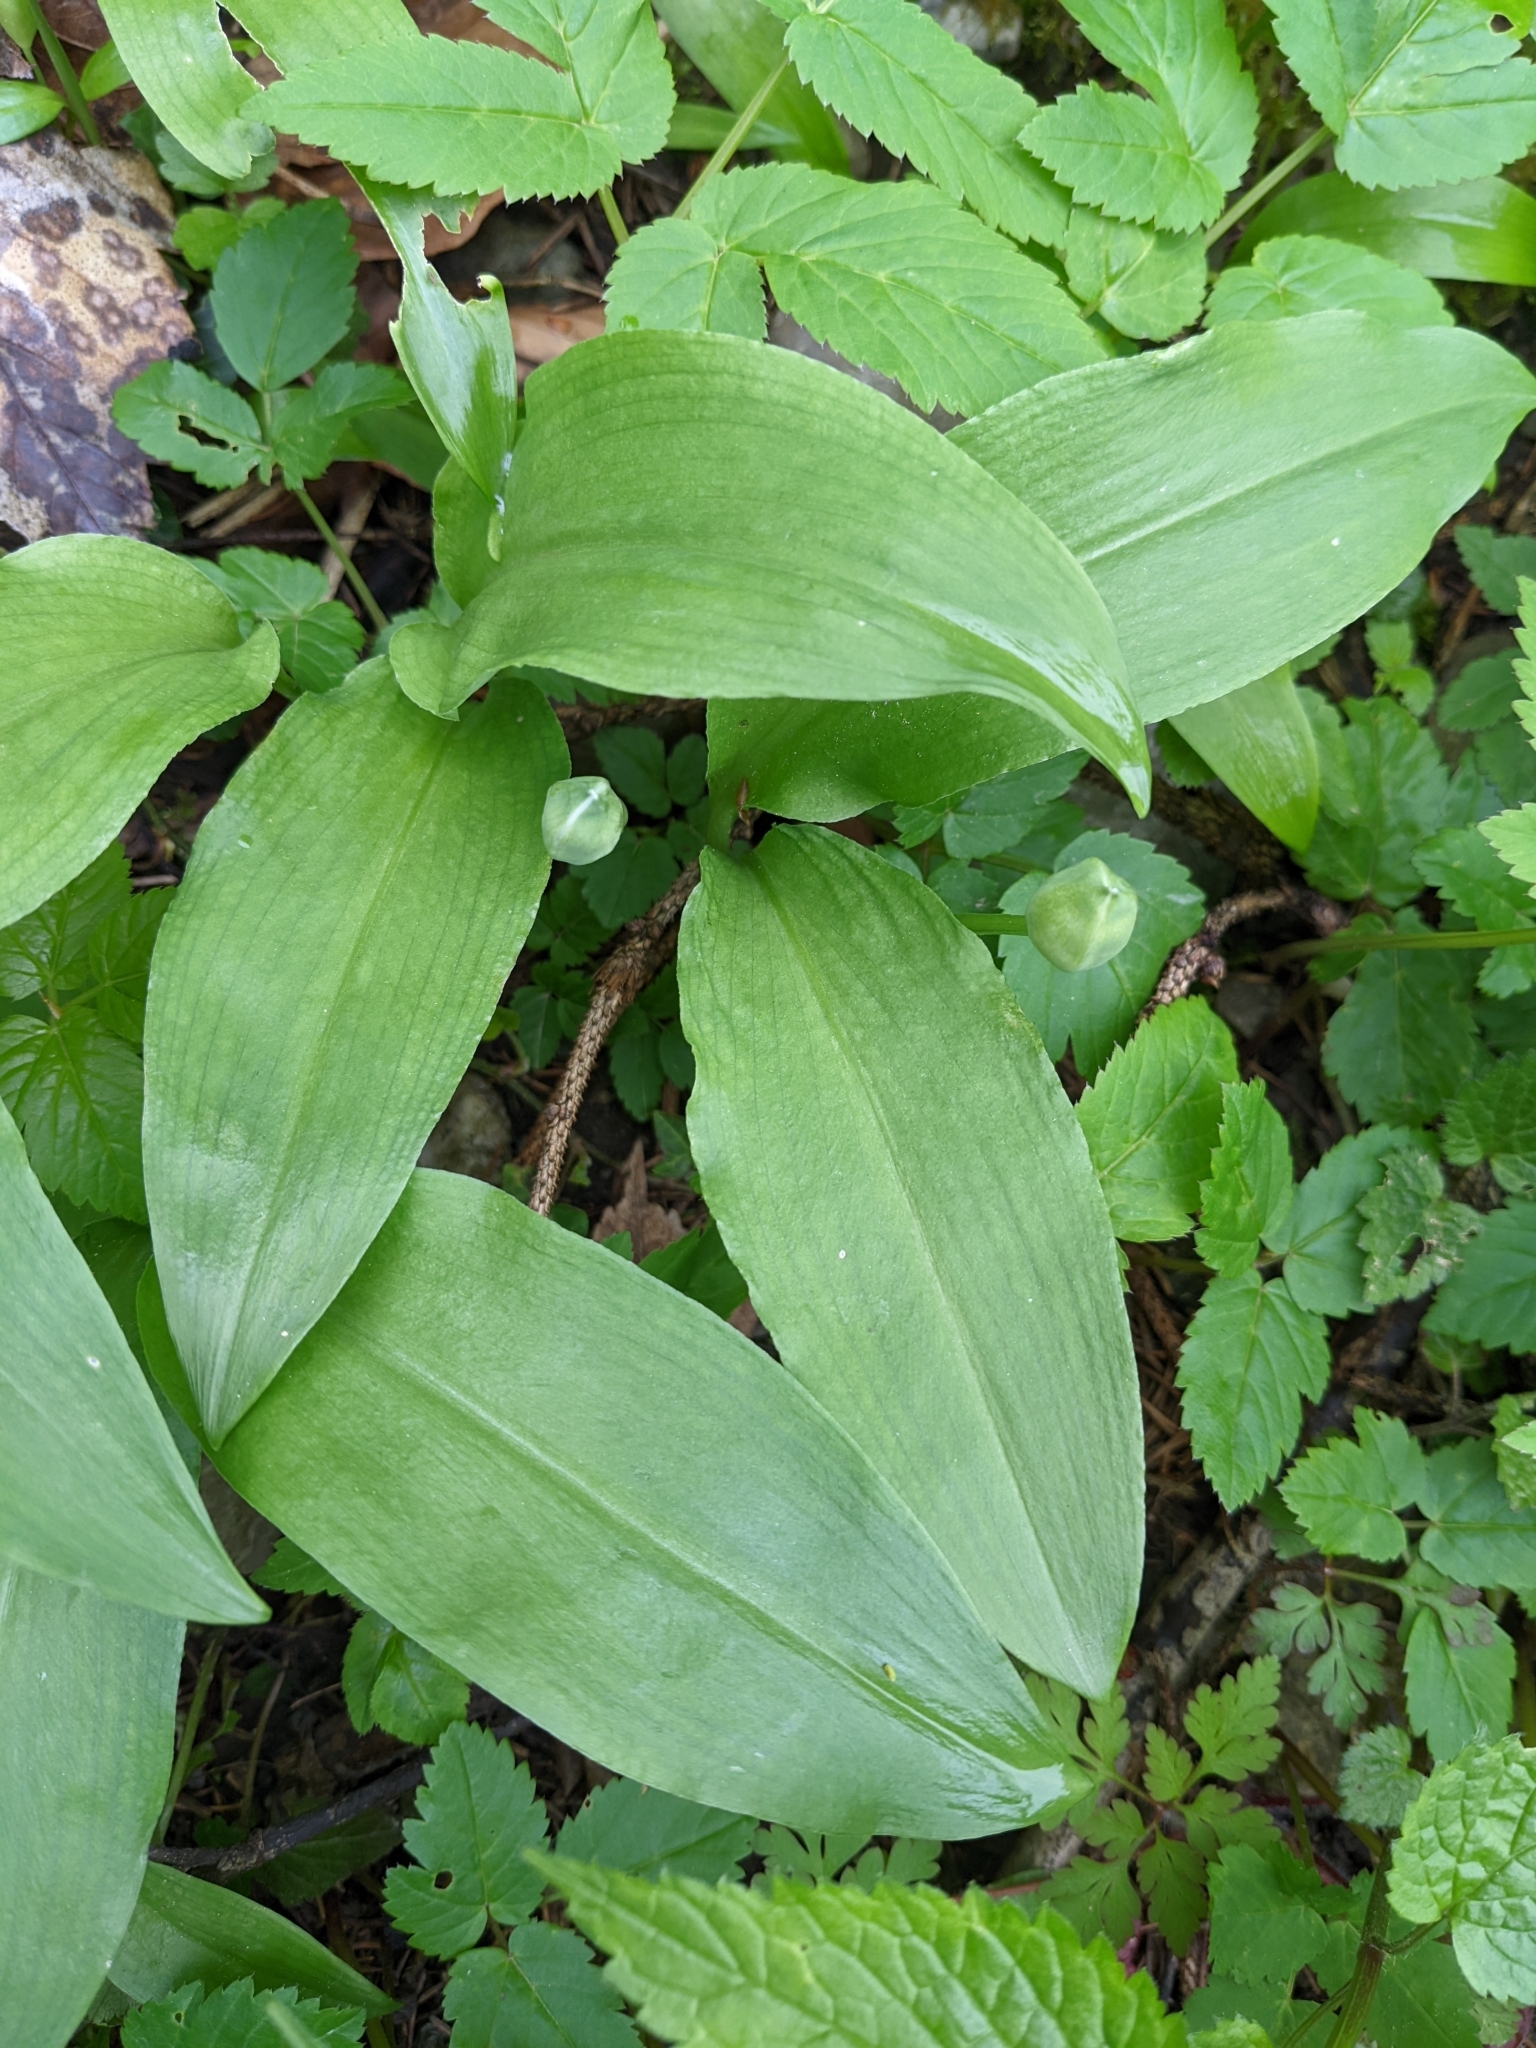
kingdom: Plantae
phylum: Tracheophyta
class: Liliopsida
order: Asparagales
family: Amaryllidaceae
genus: Allium
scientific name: Allium ursinum
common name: Ramsons
